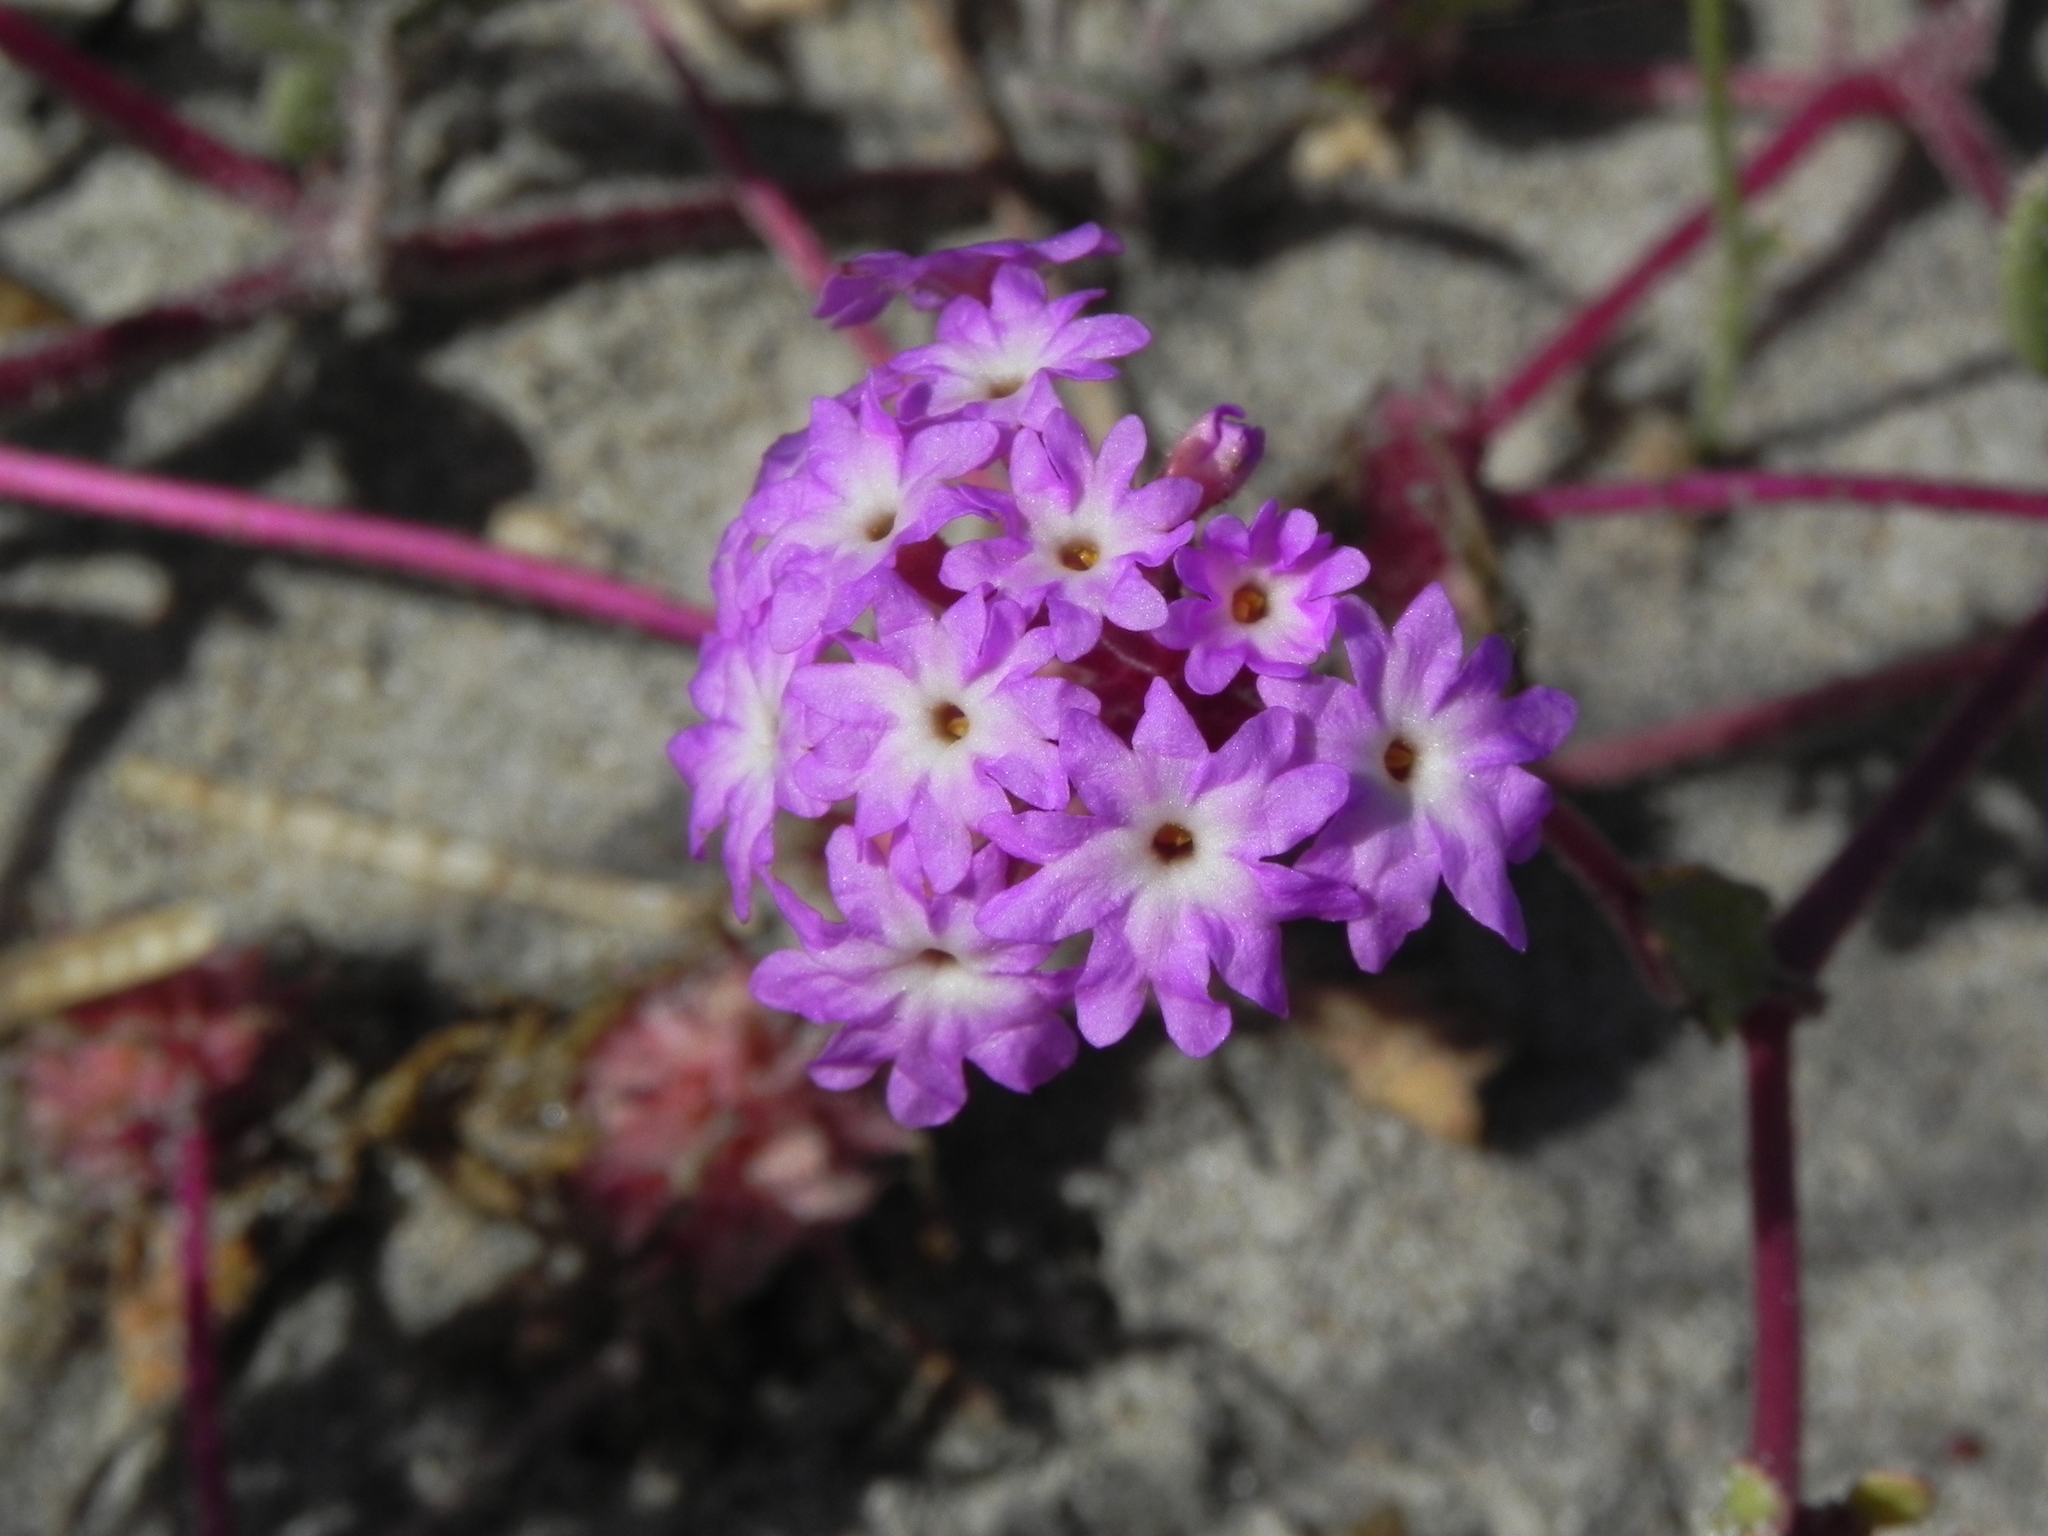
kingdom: Plantae
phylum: Tracheophyta
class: Magnoliopsida
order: Caryophyllales
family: Nyctaginaceae
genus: Abronia
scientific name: Abronia umbellata
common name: Sand-verbena
